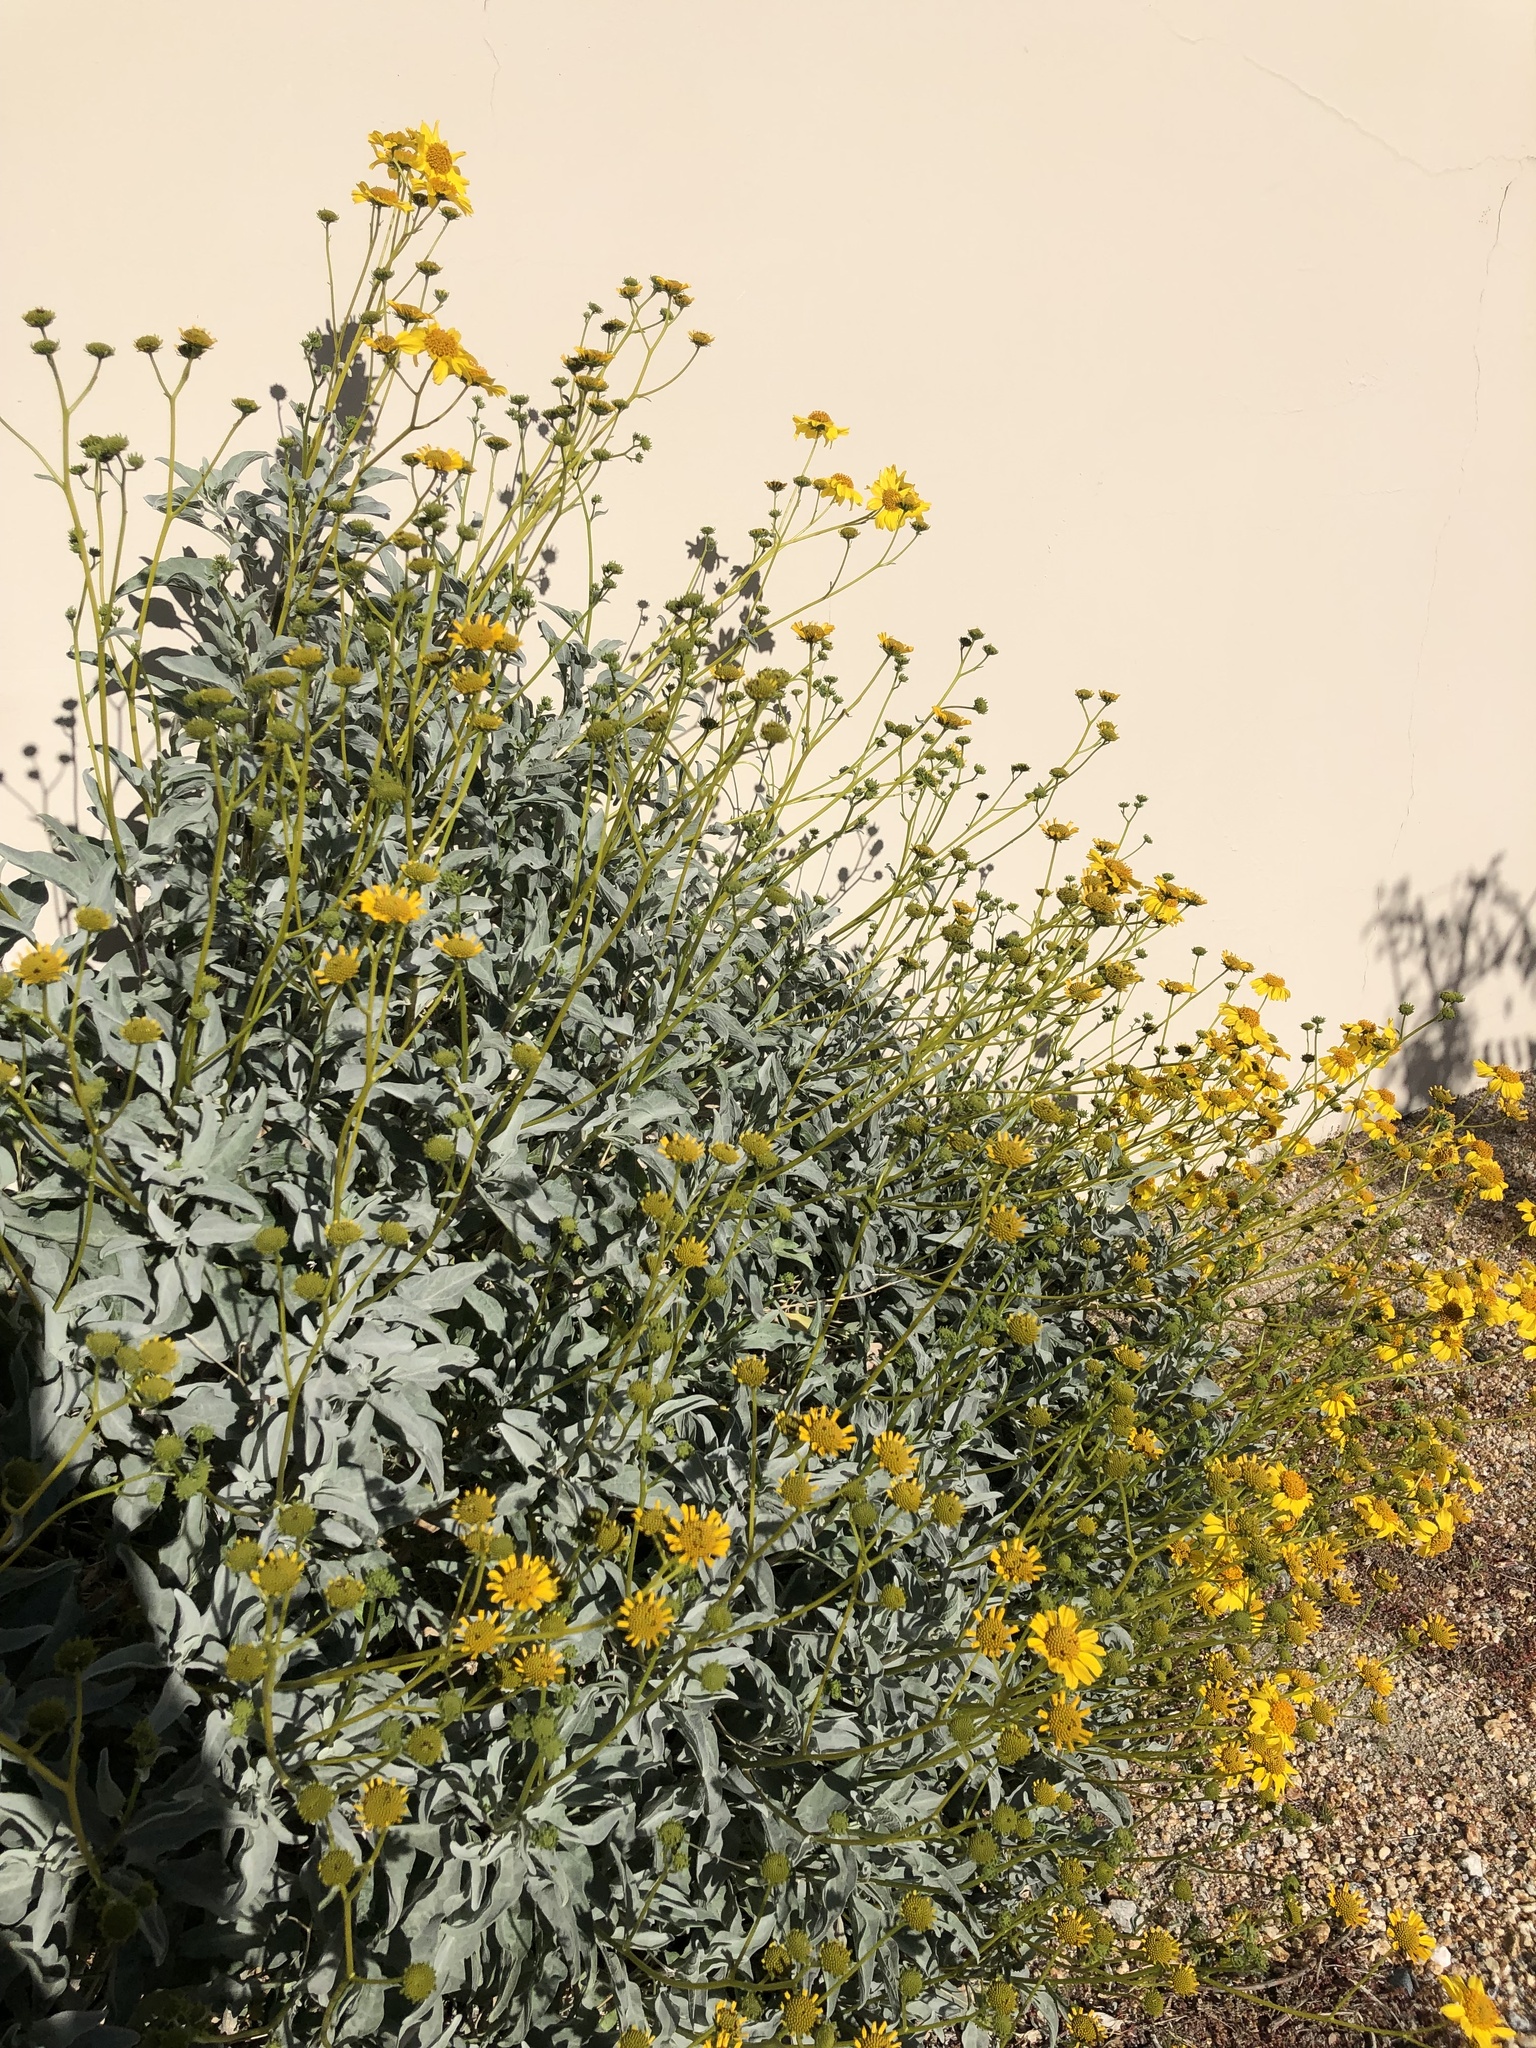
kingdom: Plantae
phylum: Tracheophyta
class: Magnoliopsida
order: Asterales
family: Asteraceae
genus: Encelia
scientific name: Encelia farinosa
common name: Brittlebush
